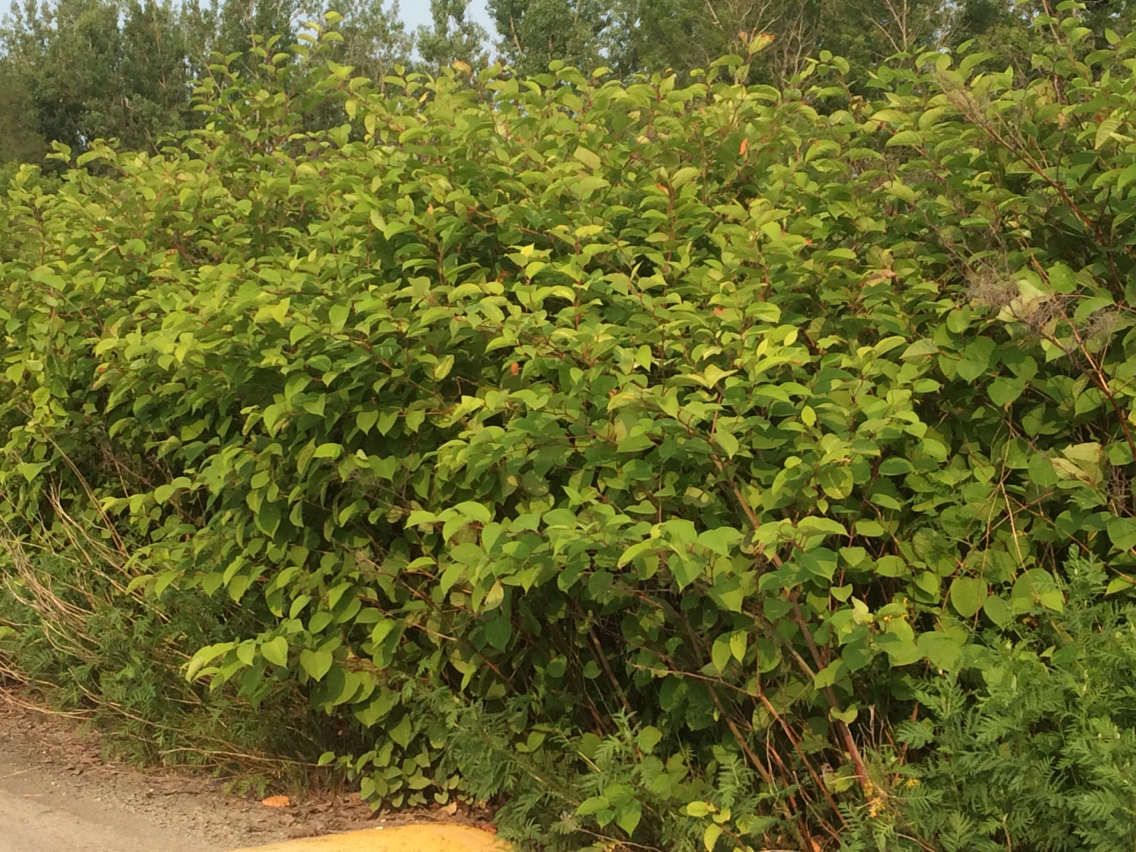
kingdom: Plantae
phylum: Tracheophyta
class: Magnoliopsida
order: Caryophyllales
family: Polygonaceae
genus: Reynoutria
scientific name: Reynoutria japonica
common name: Japanese knotweed
